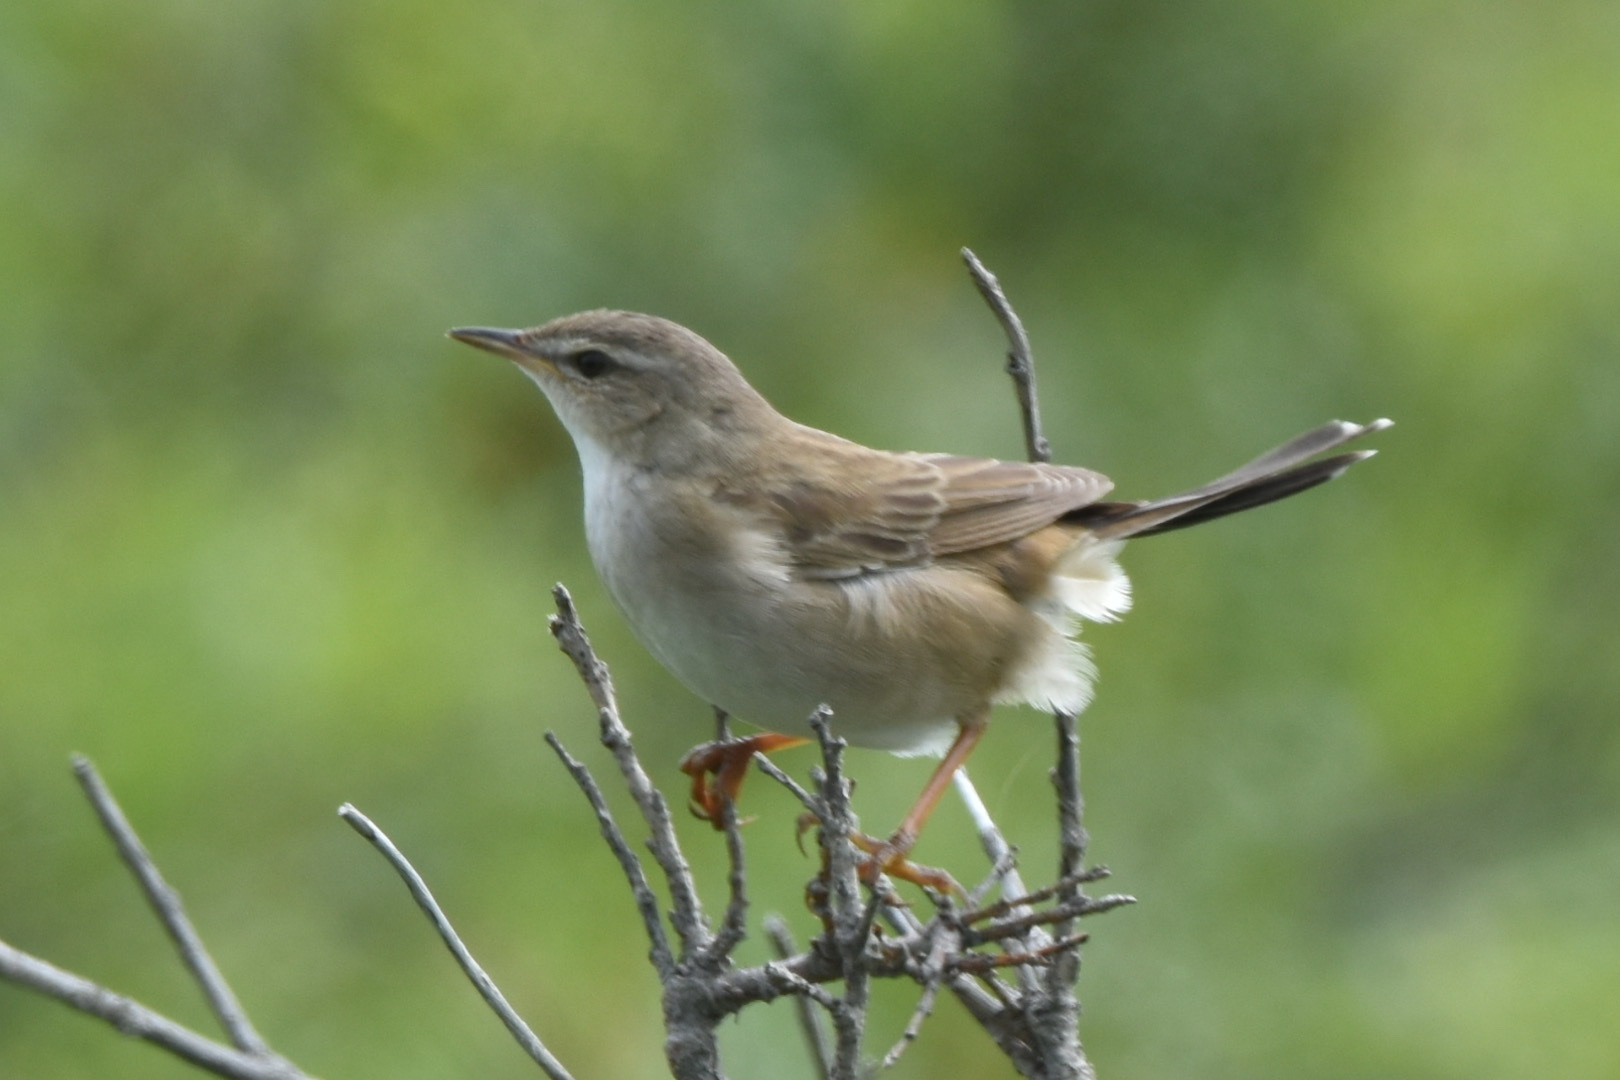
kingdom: Animalia
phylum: Chordata
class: Aves
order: Passeriformes
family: Locustellidae
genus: Locustella
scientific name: Locustella ochotensis
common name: Middendorff's grasshopper-warbler
